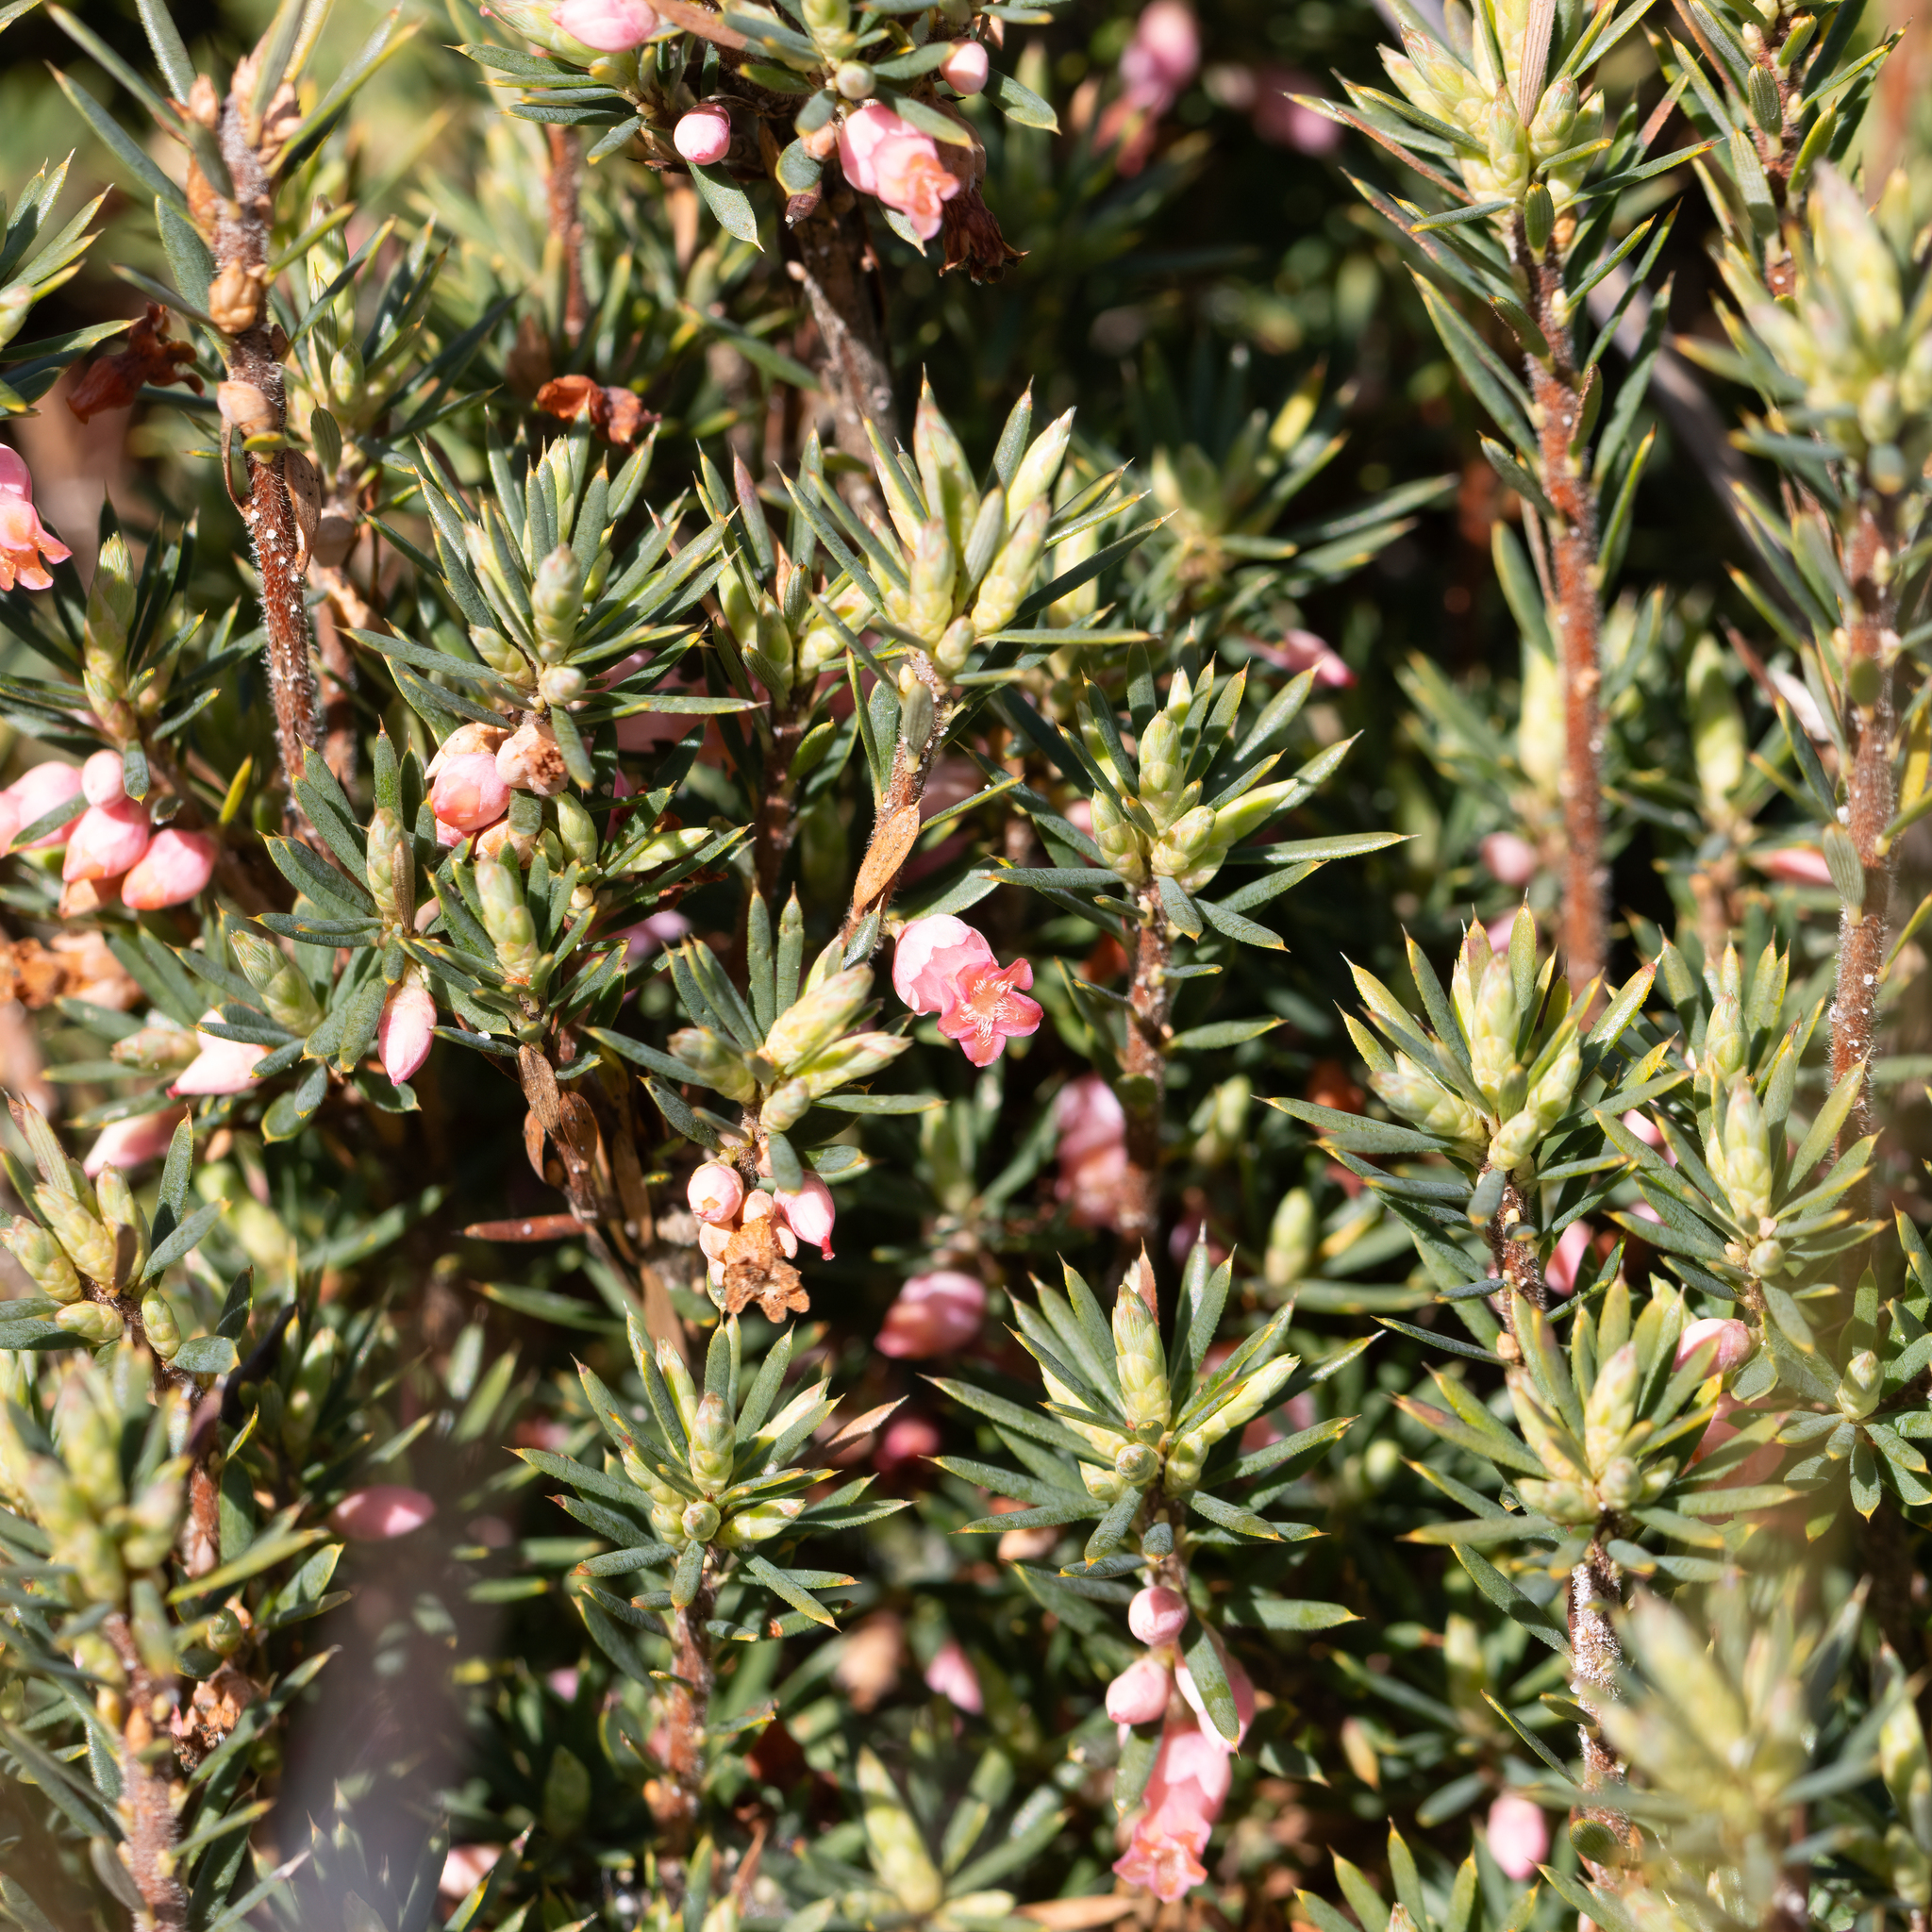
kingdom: Plantae
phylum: Tracheophyta
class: Magnoliopsida
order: Ericales
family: Ericaceae
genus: Brachyloma
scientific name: Brachyloma ericoides
